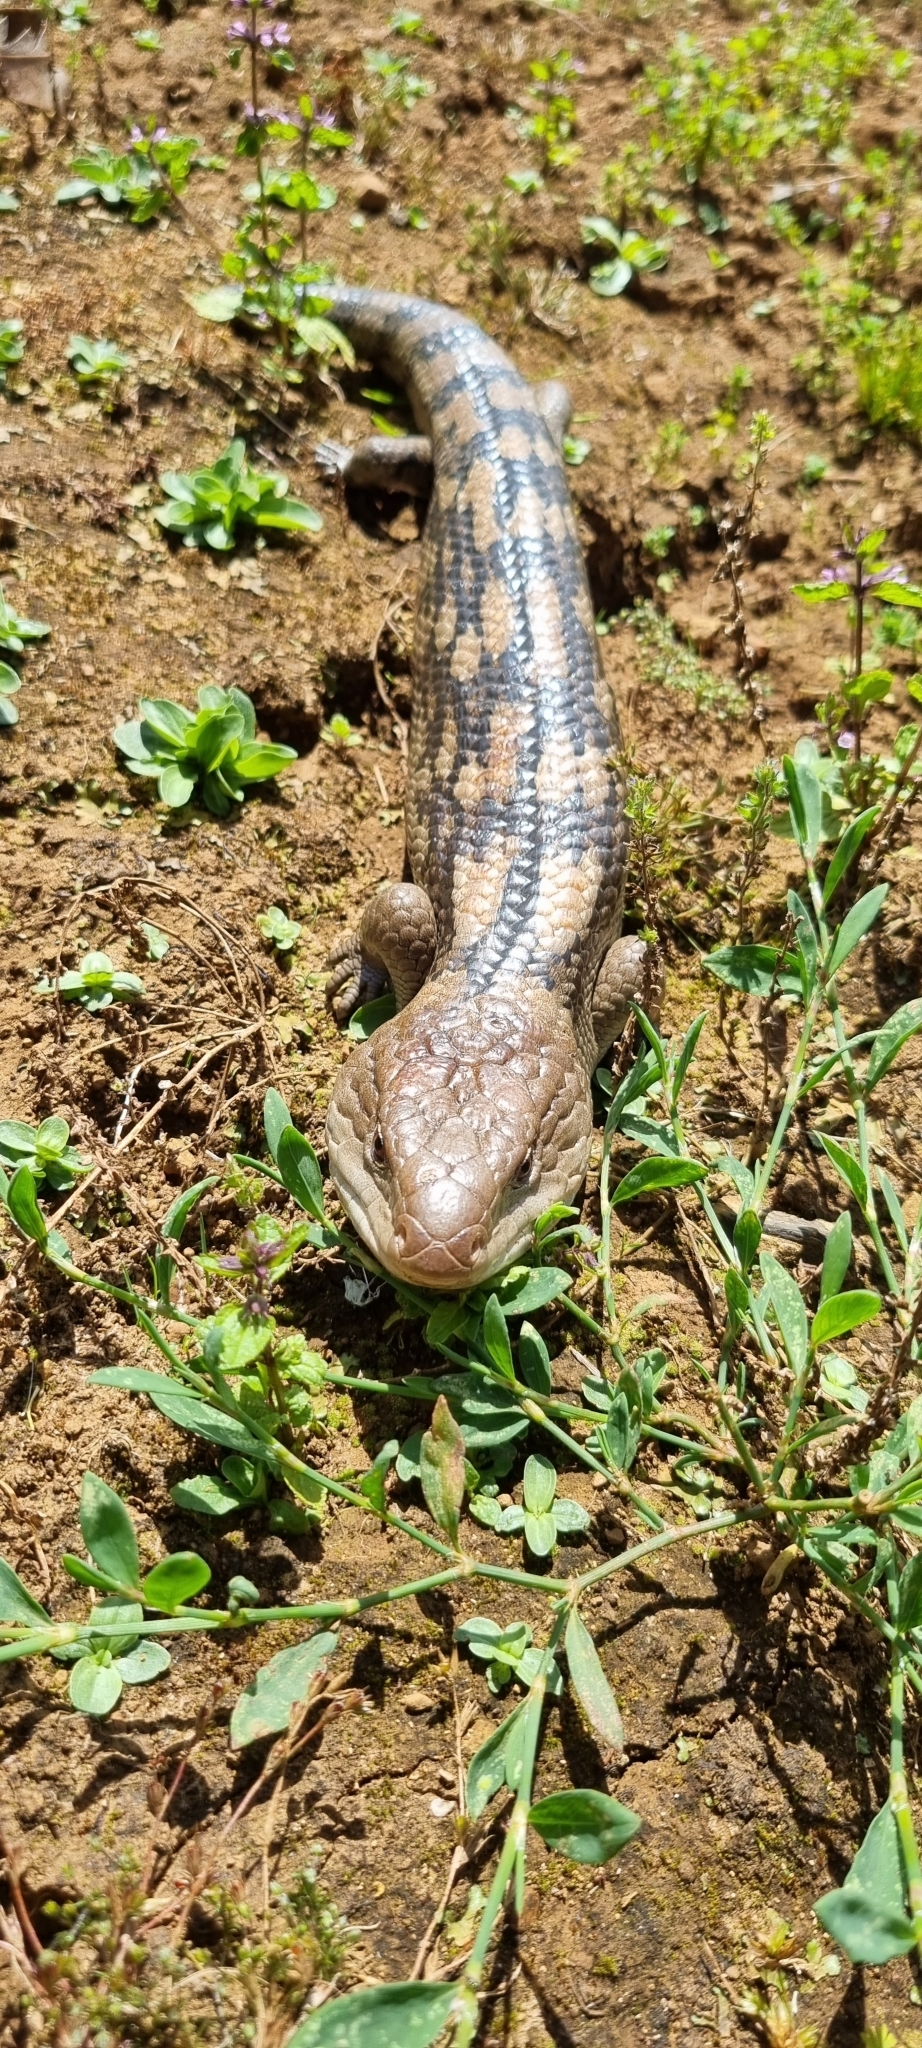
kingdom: Animalia
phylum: Chordata
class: Squamata
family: Scincidae
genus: Tiliqua
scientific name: Tiliqua nigrolutea
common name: Blotched blue-tongued lizard
